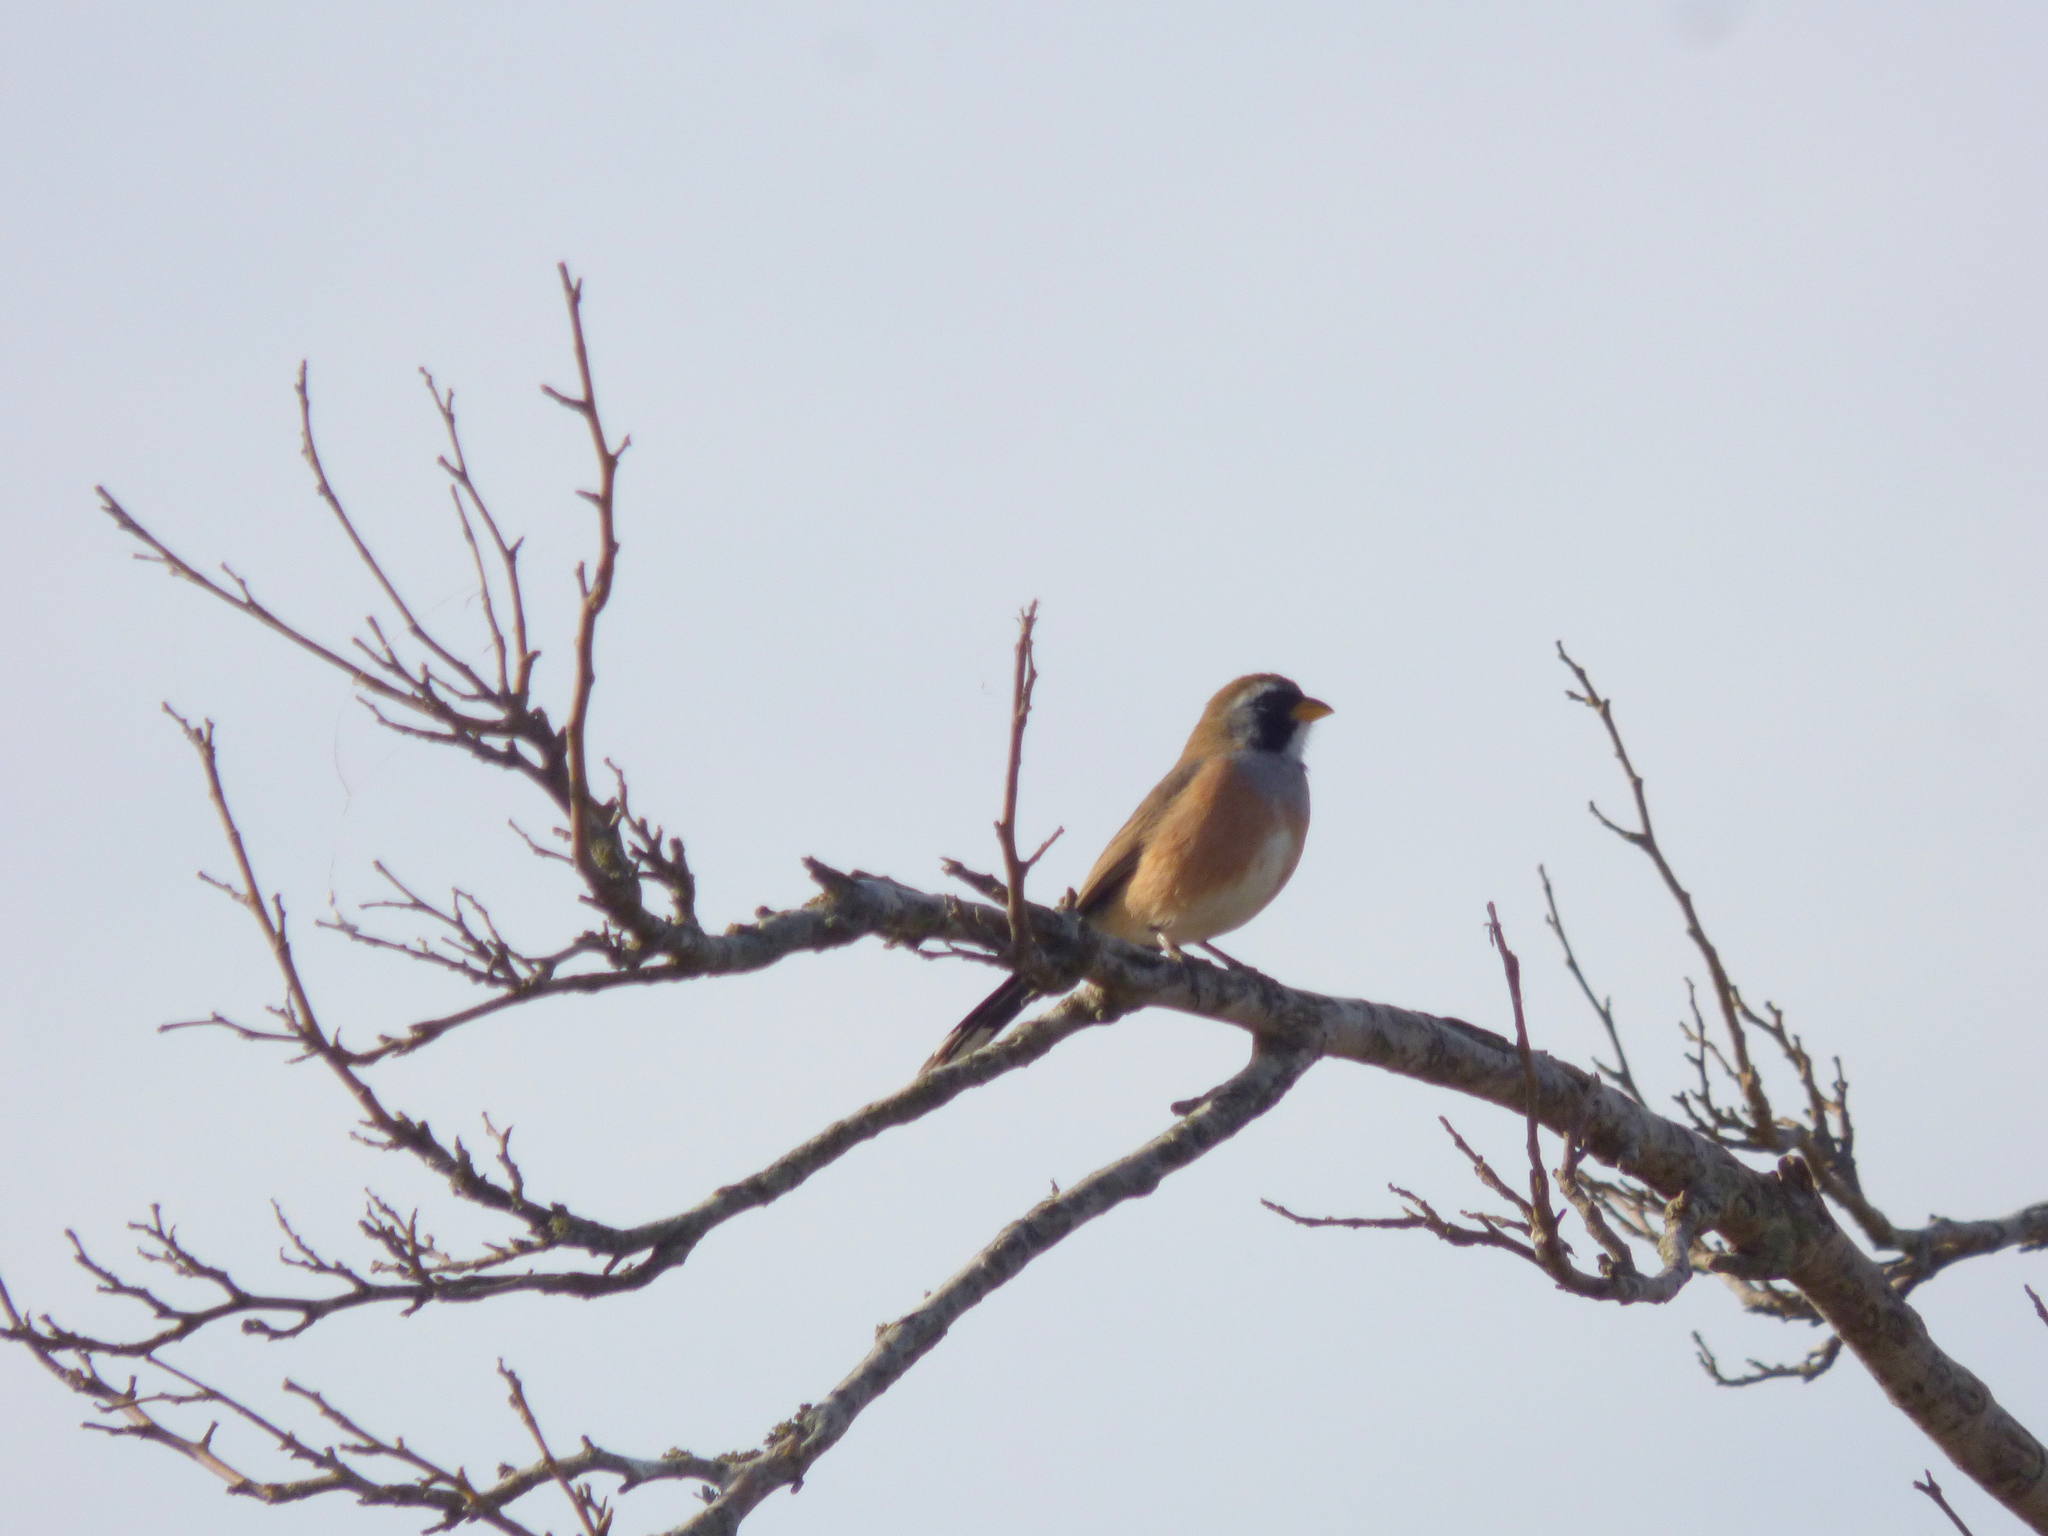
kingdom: Animalia
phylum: Chordata
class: Aves
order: Passeriformes
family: Thraupidae
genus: Saltatricula
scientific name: Saltatricula multicolor
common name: Many-colored chaco finch
